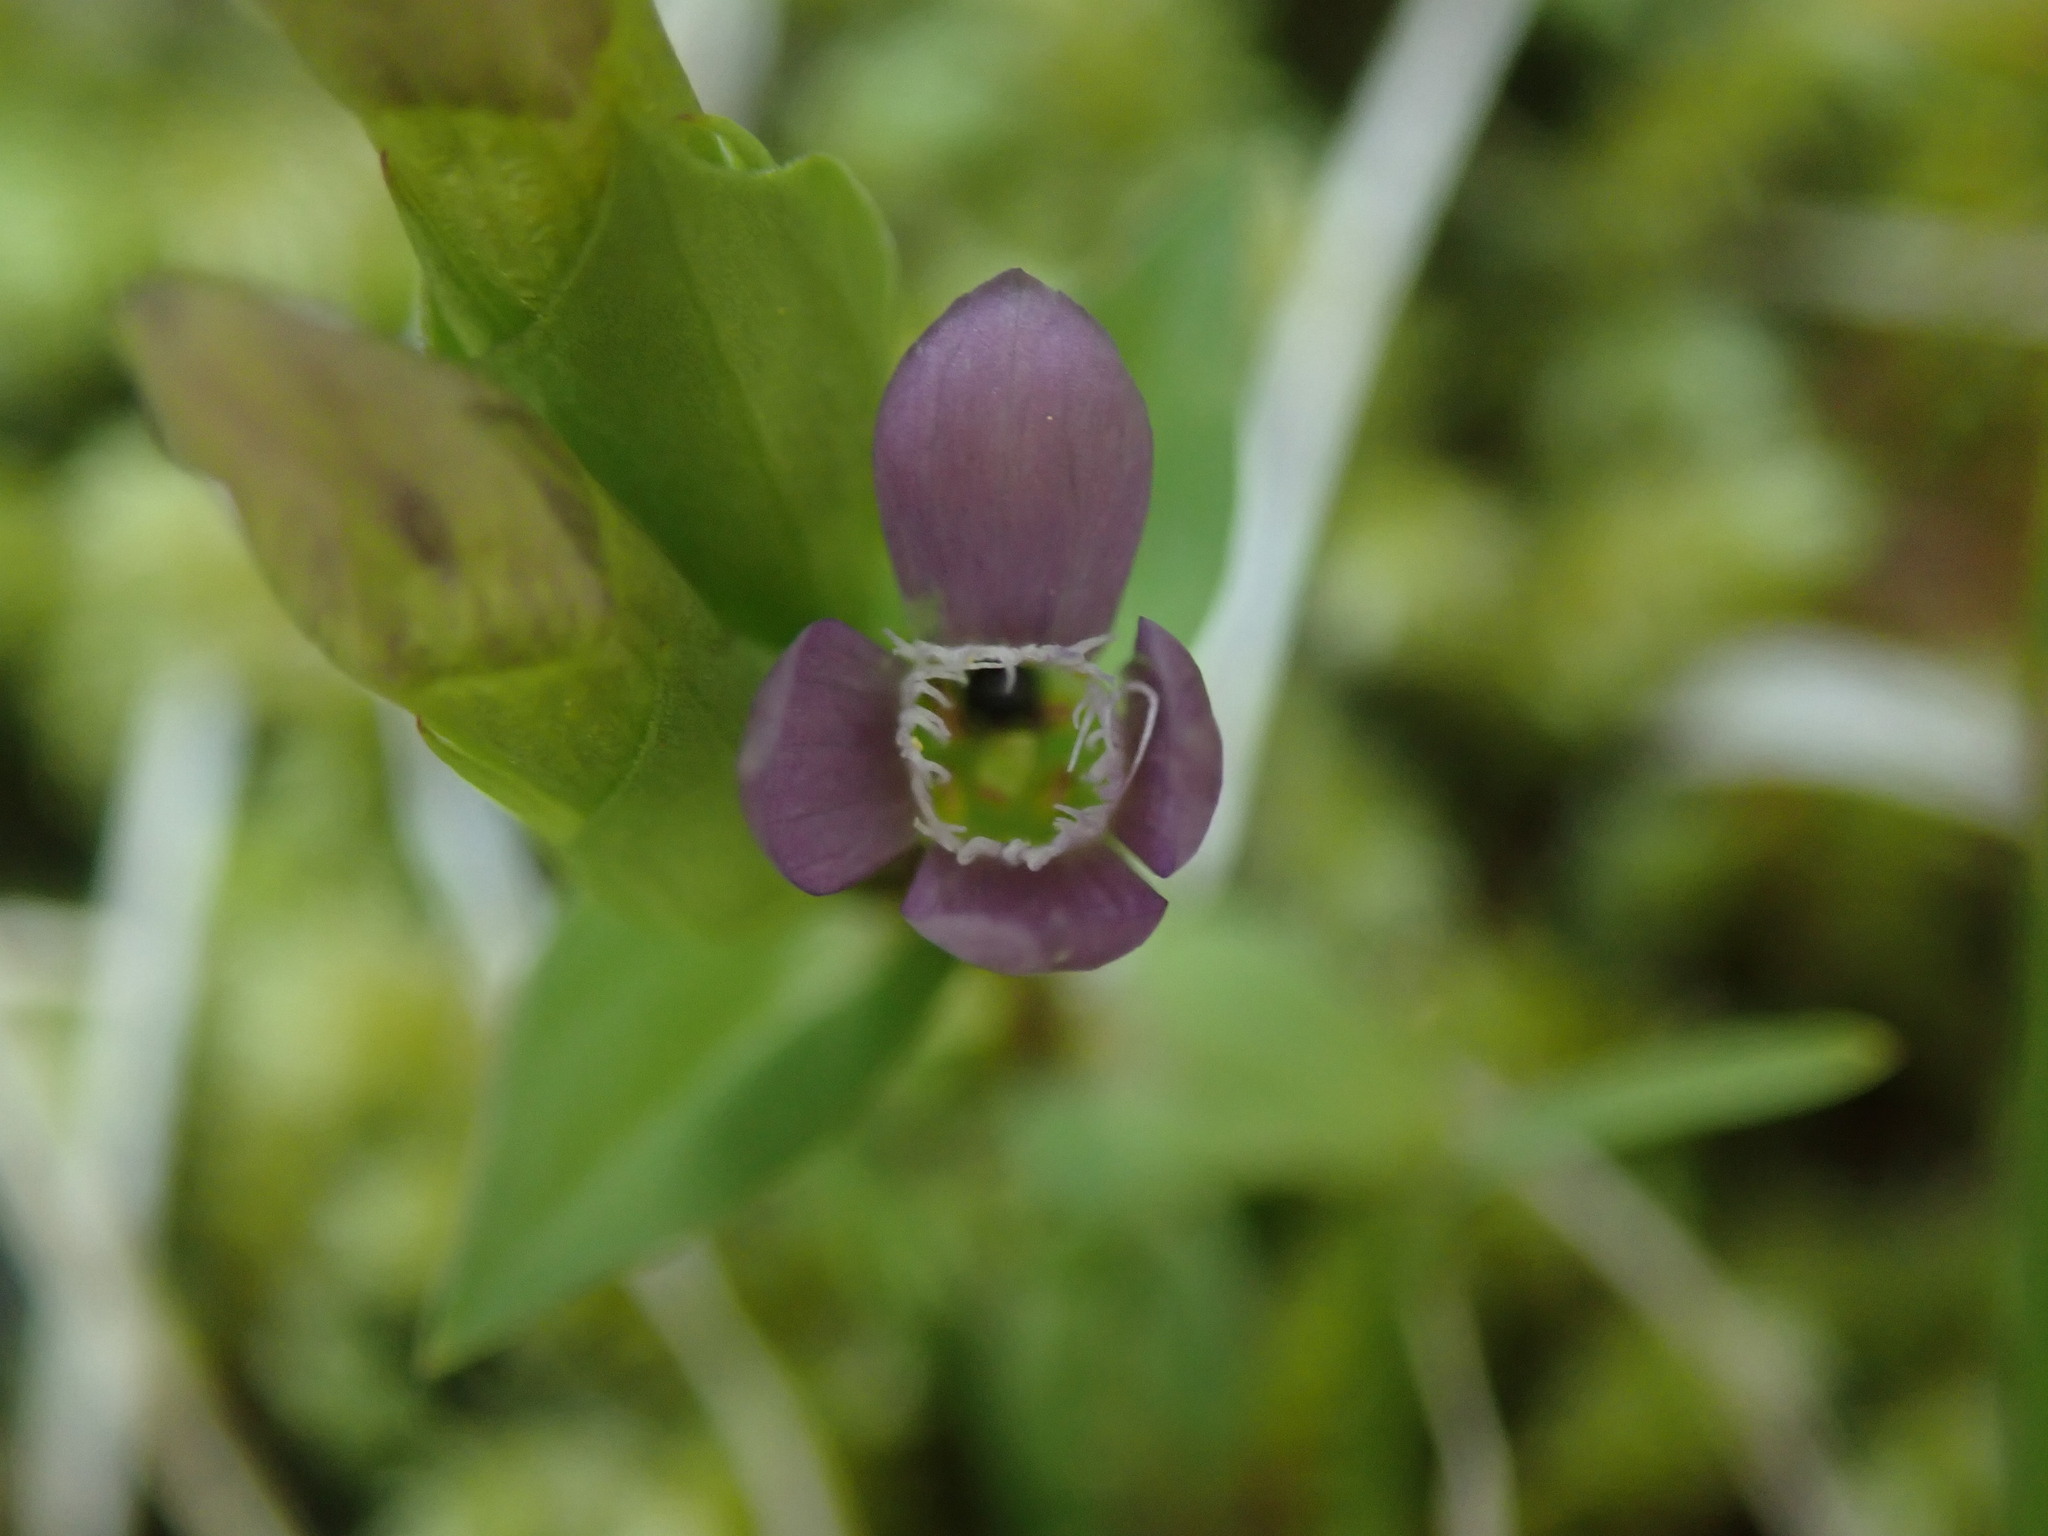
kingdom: Plantae
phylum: Tracheophyta
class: Magnoliopsida
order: Gentianales
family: Gentianaceae
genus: Gentianella
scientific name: Gentianella campestris
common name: Field gentian
